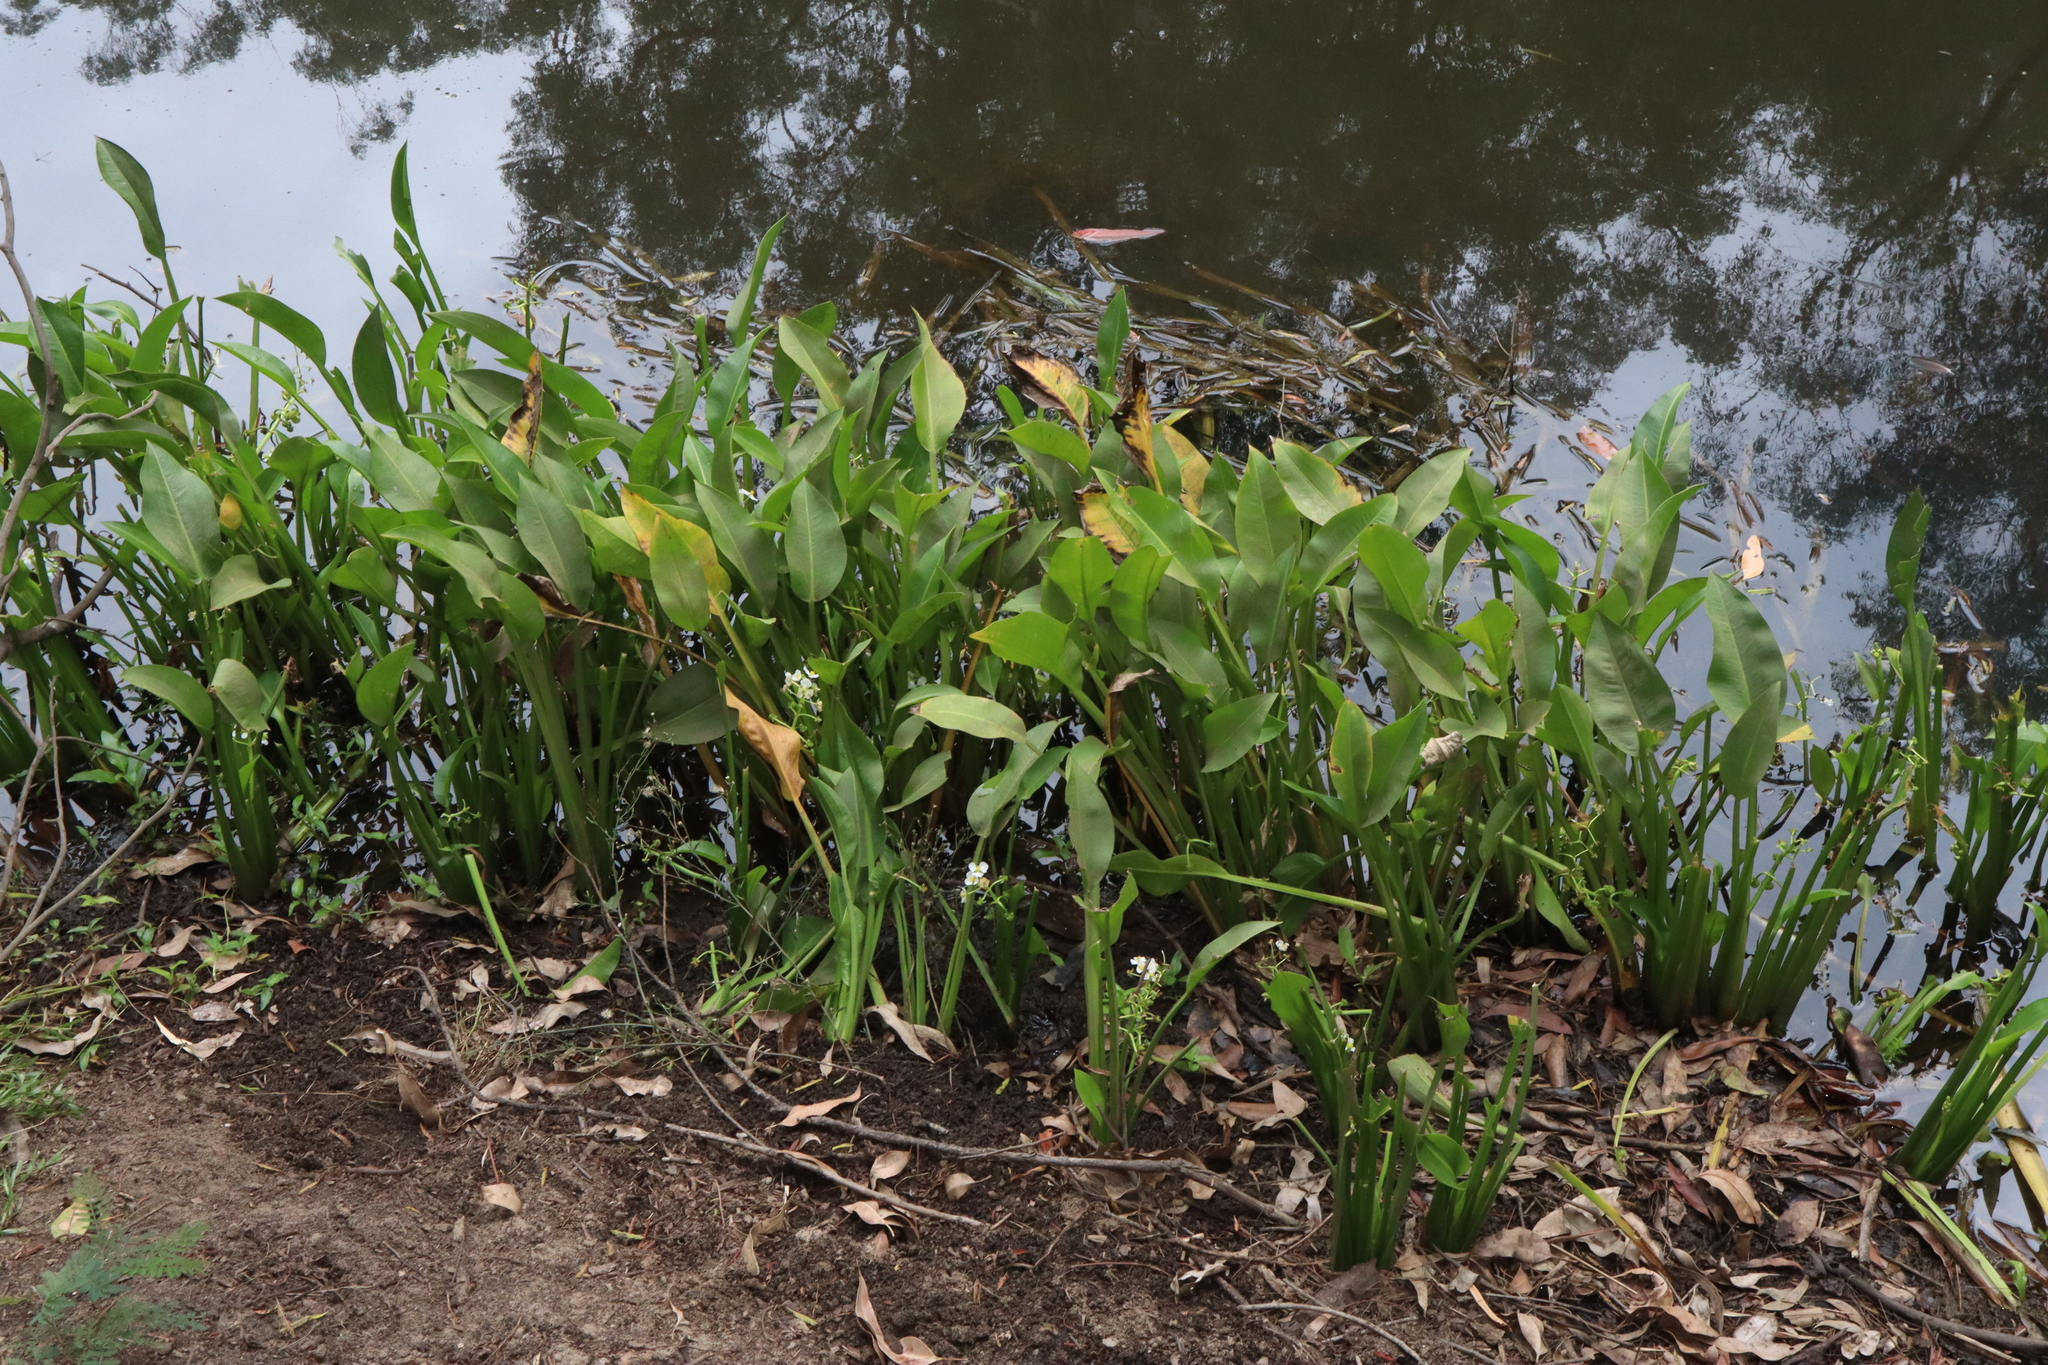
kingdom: Plantae
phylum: Tracheophyta
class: Liliopsida
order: Alismatales
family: Alismataceae
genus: Sagittaria
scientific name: Sagittaria platyphylla
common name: Broad-leaf arrowhead
